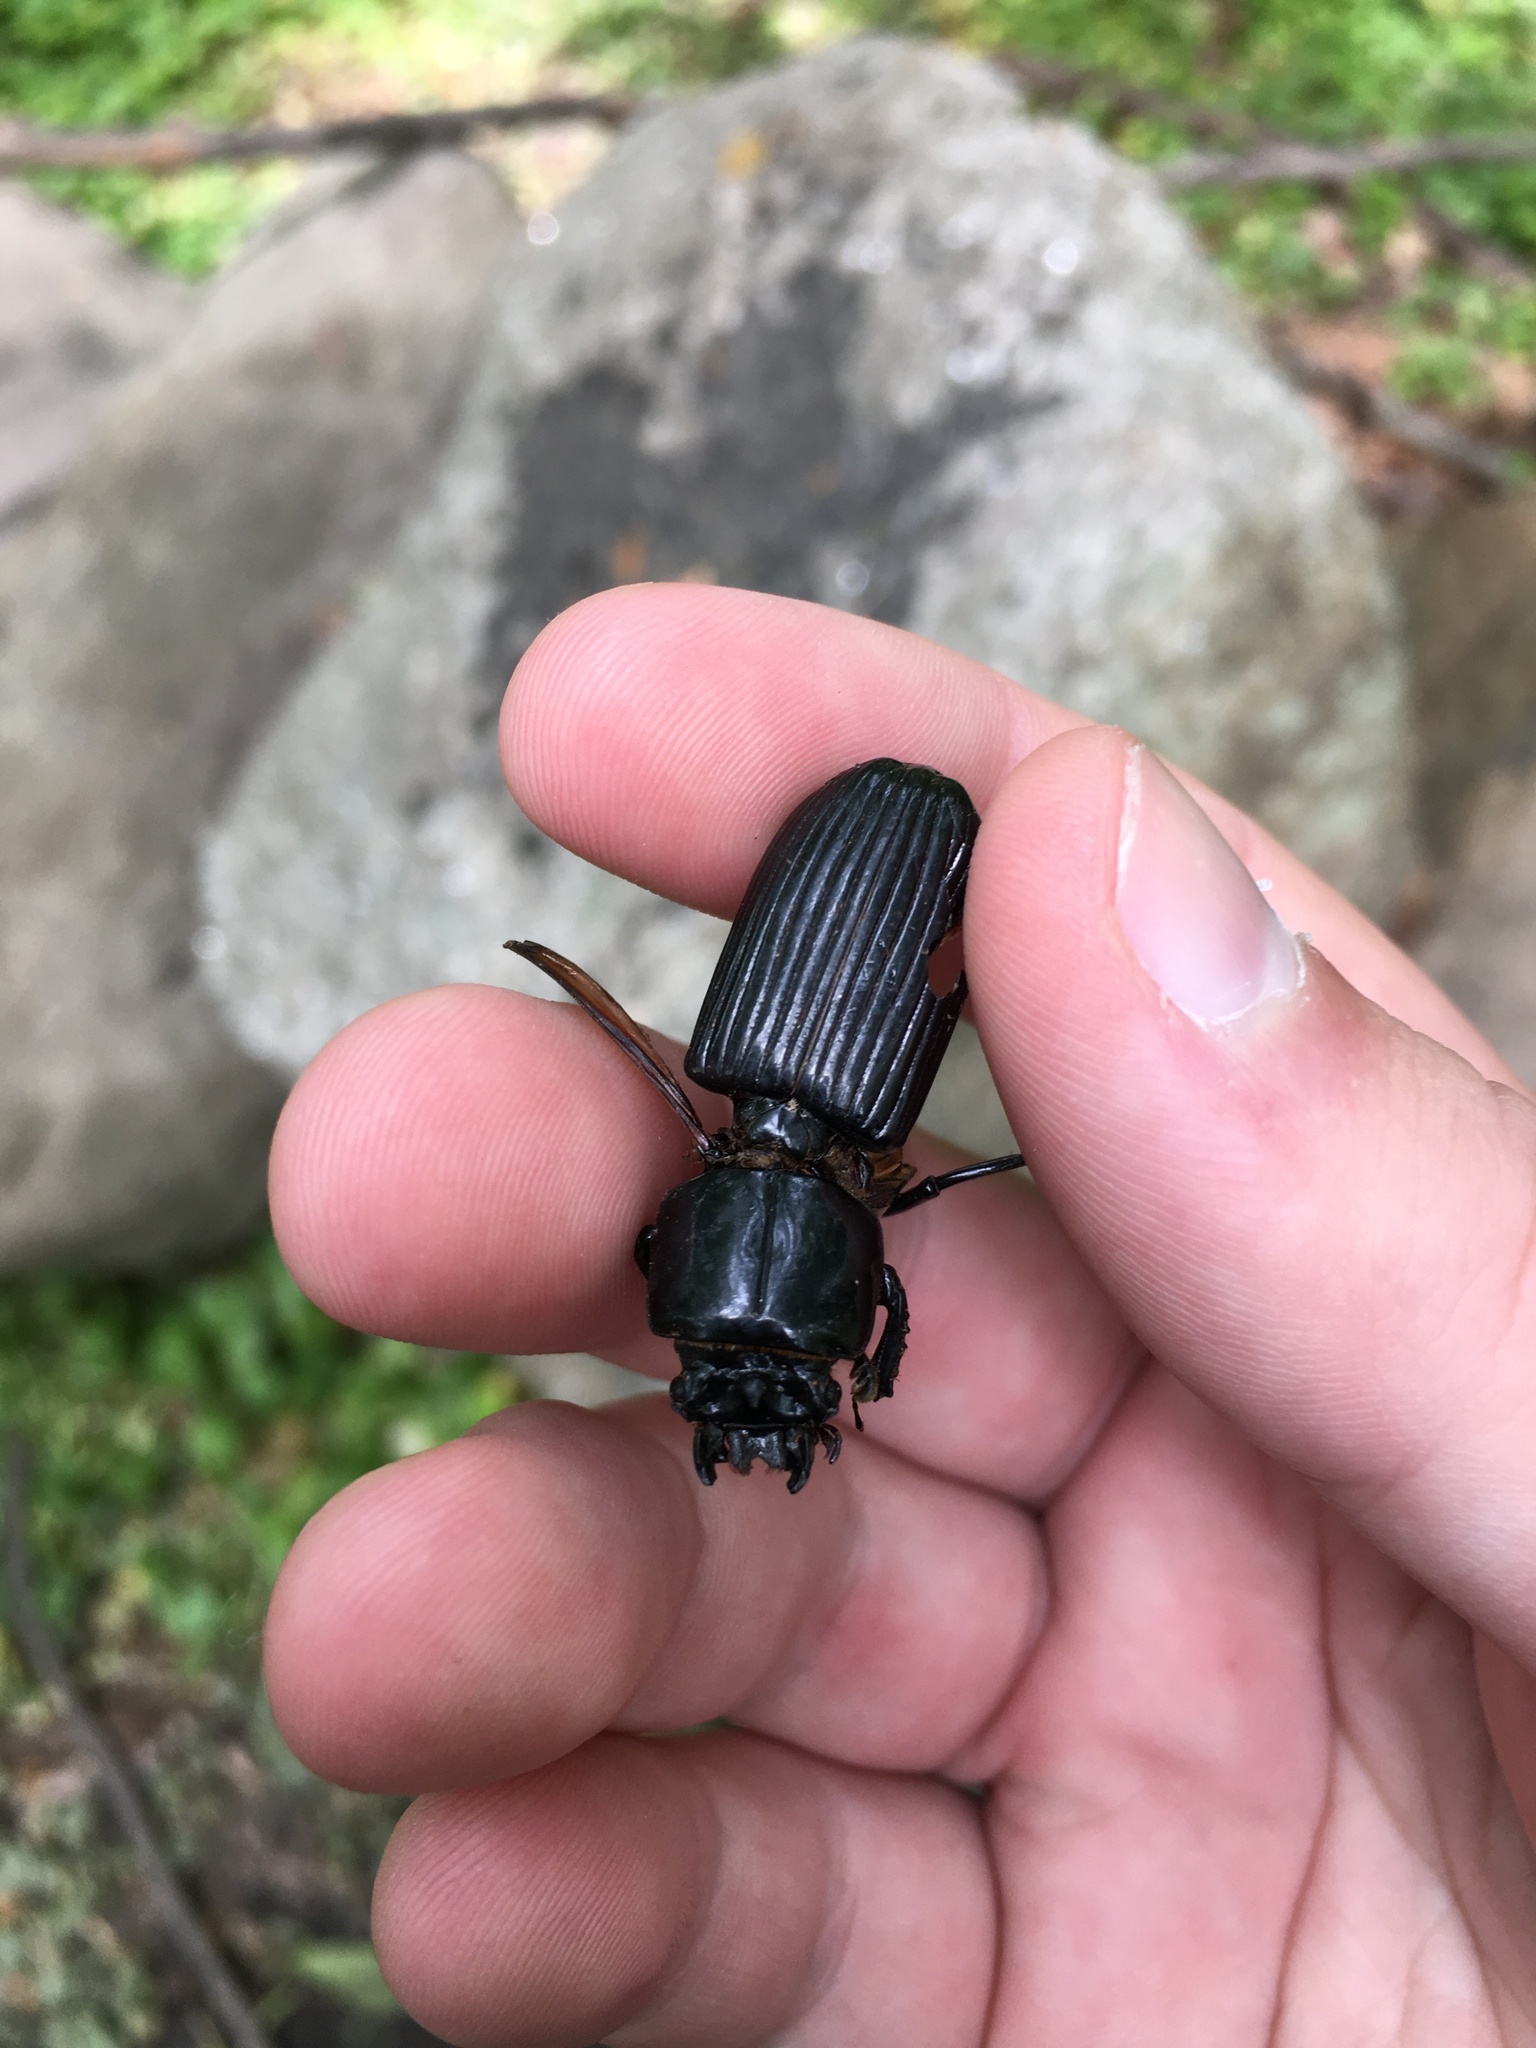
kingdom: Animalia
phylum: Arthropoda
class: Insecta
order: Coleoptera
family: Passalidae
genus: Odontotaenius
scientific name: Odontotaenius disjunctus
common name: Patent leather beetle
